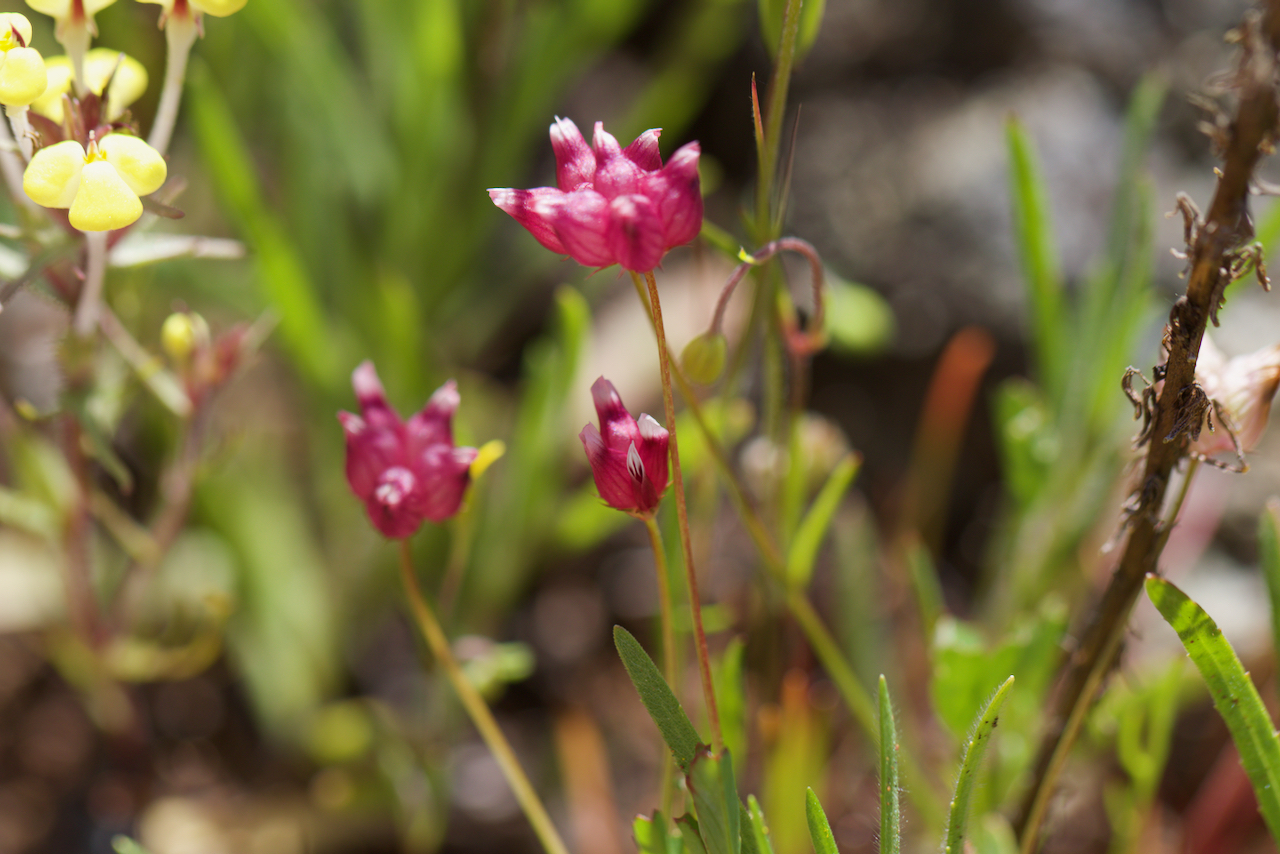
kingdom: Plantae
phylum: Tracheophyta
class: Magnoliopsida
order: Fabales
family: Fabaceae
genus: Trifolium
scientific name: Trifolium depauperatum
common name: Poverty clover
